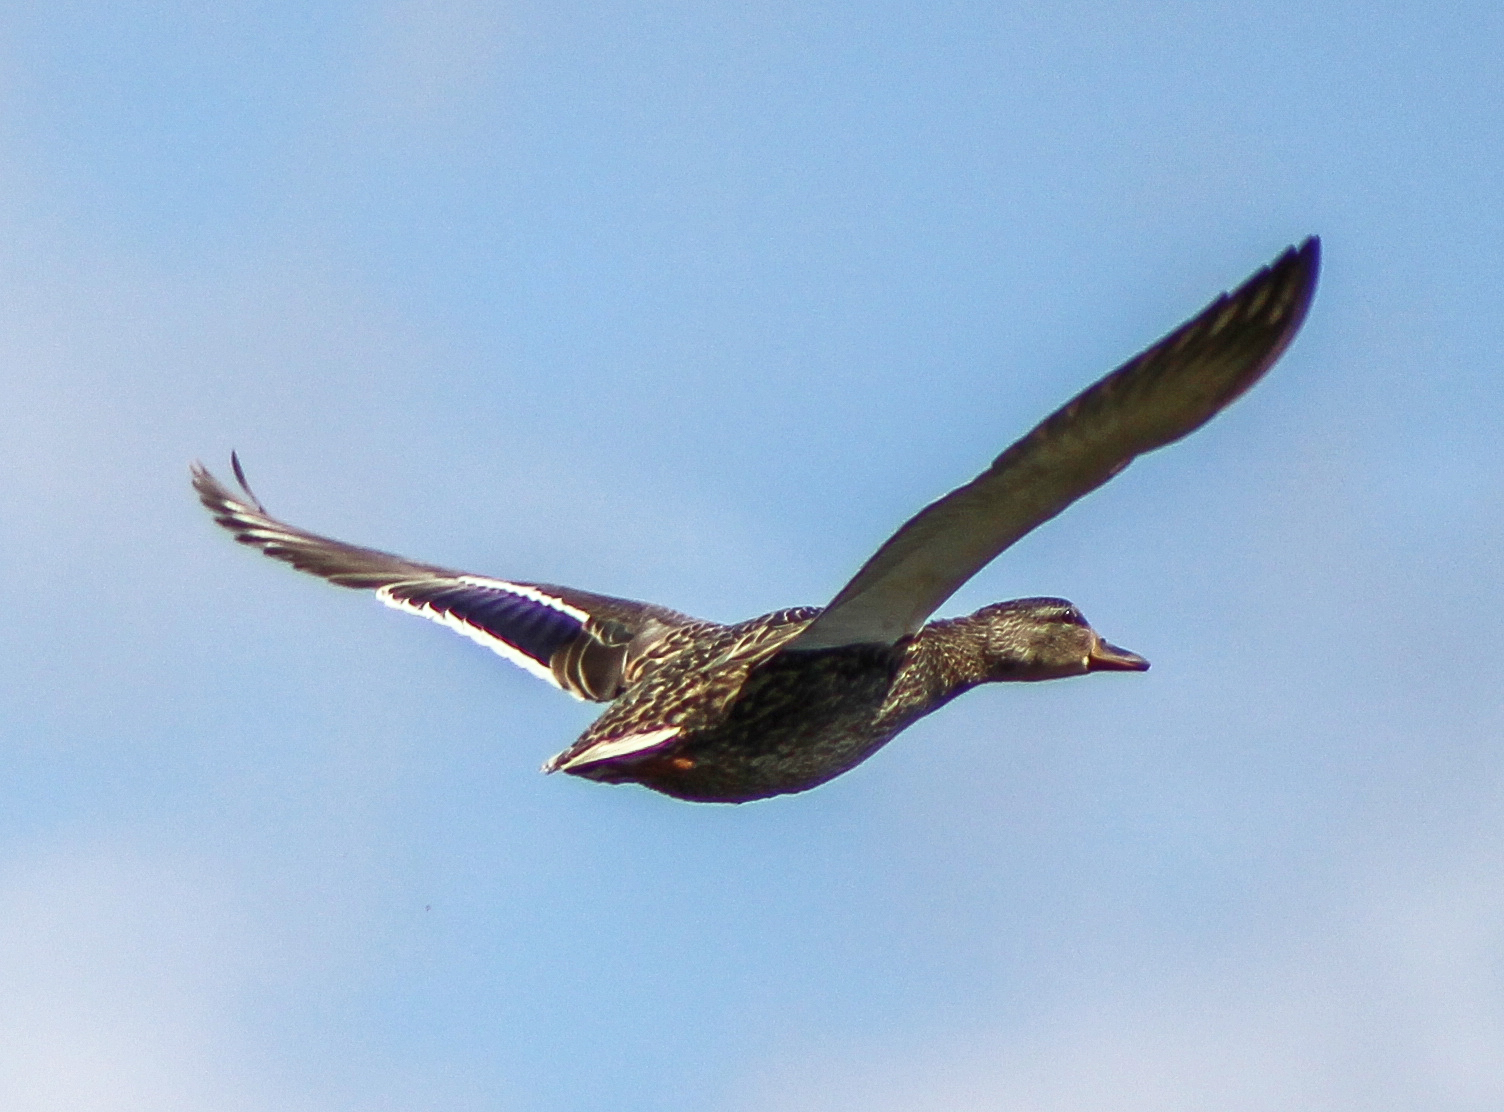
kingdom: Animalia
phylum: Chordata
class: Aves
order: Anseriformes
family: Anatidae
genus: Anas
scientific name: Anas platyrhynchos
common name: Mallard
